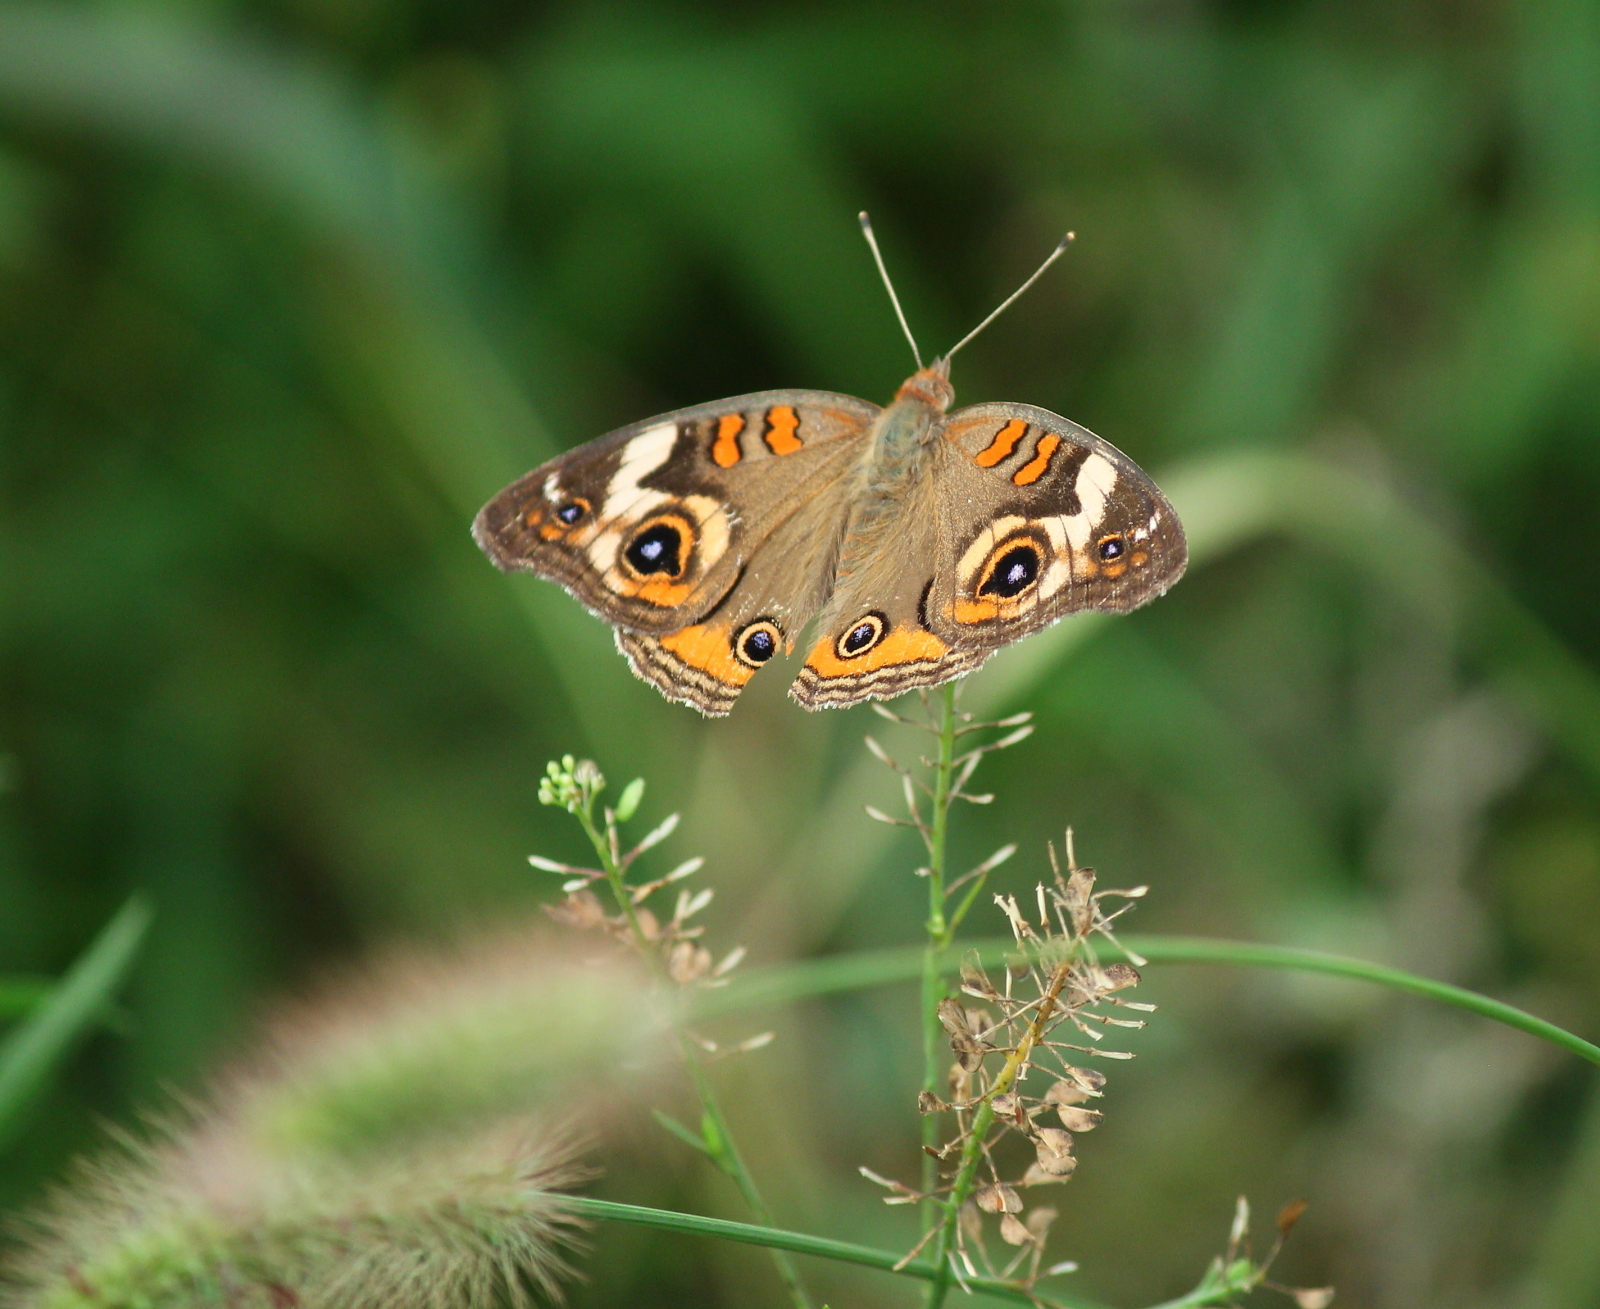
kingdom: Animalia
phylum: Arthropoda
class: Insecta
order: Lepidoptera
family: Nymphalidae
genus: Junonia
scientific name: Junonia coenia
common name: Common buckeye
